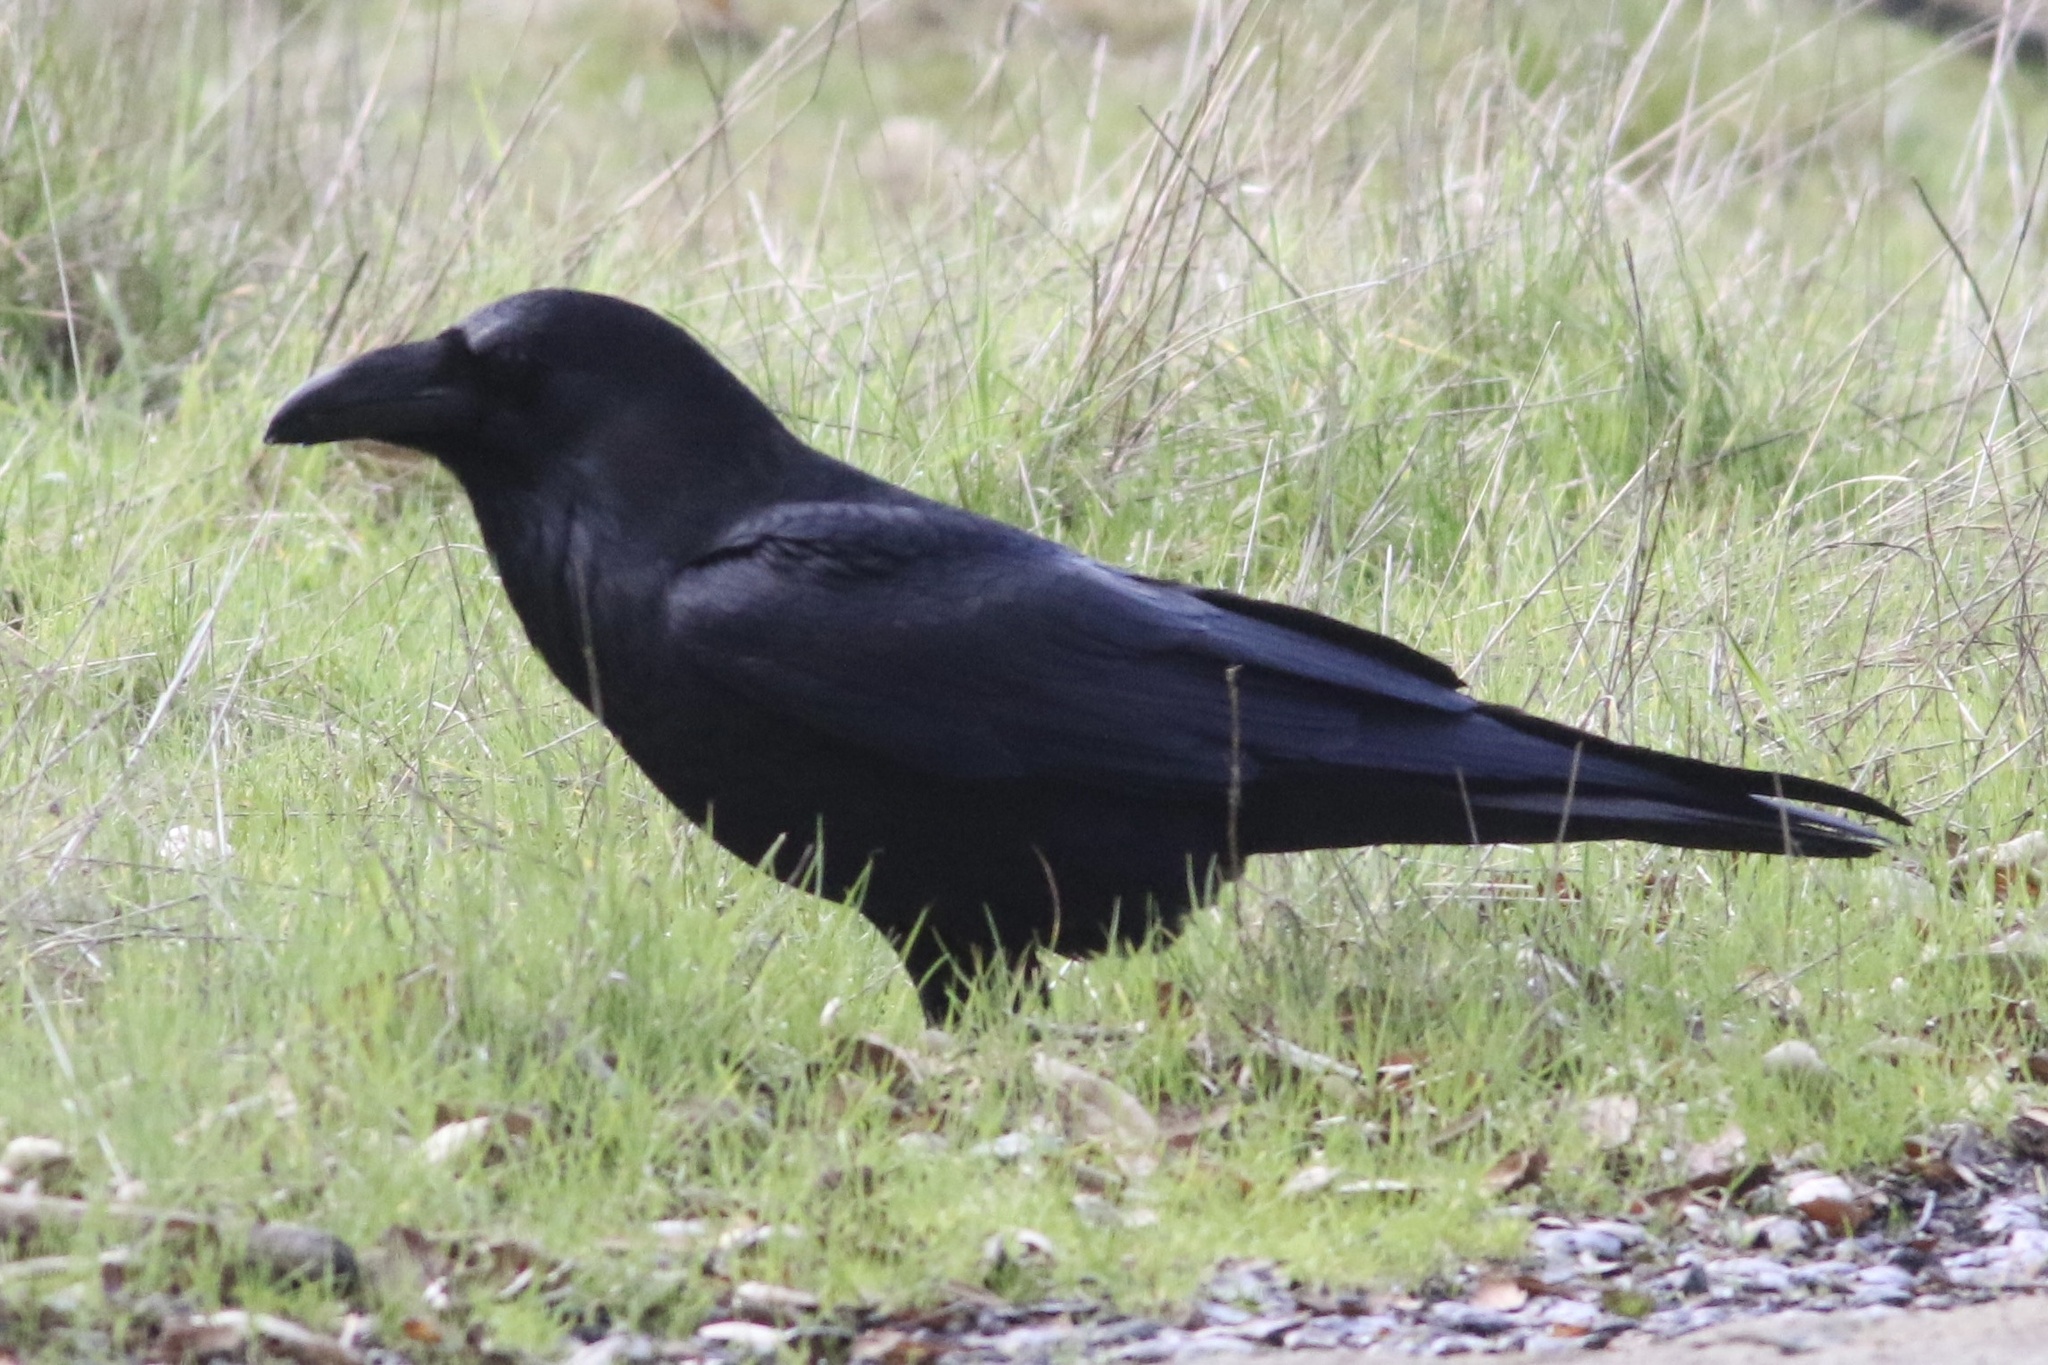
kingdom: Animalia
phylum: Chordata
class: Aves
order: Passeriformes
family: Corvidae
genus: Corvus
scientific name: Corvus corax
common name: Common raven
